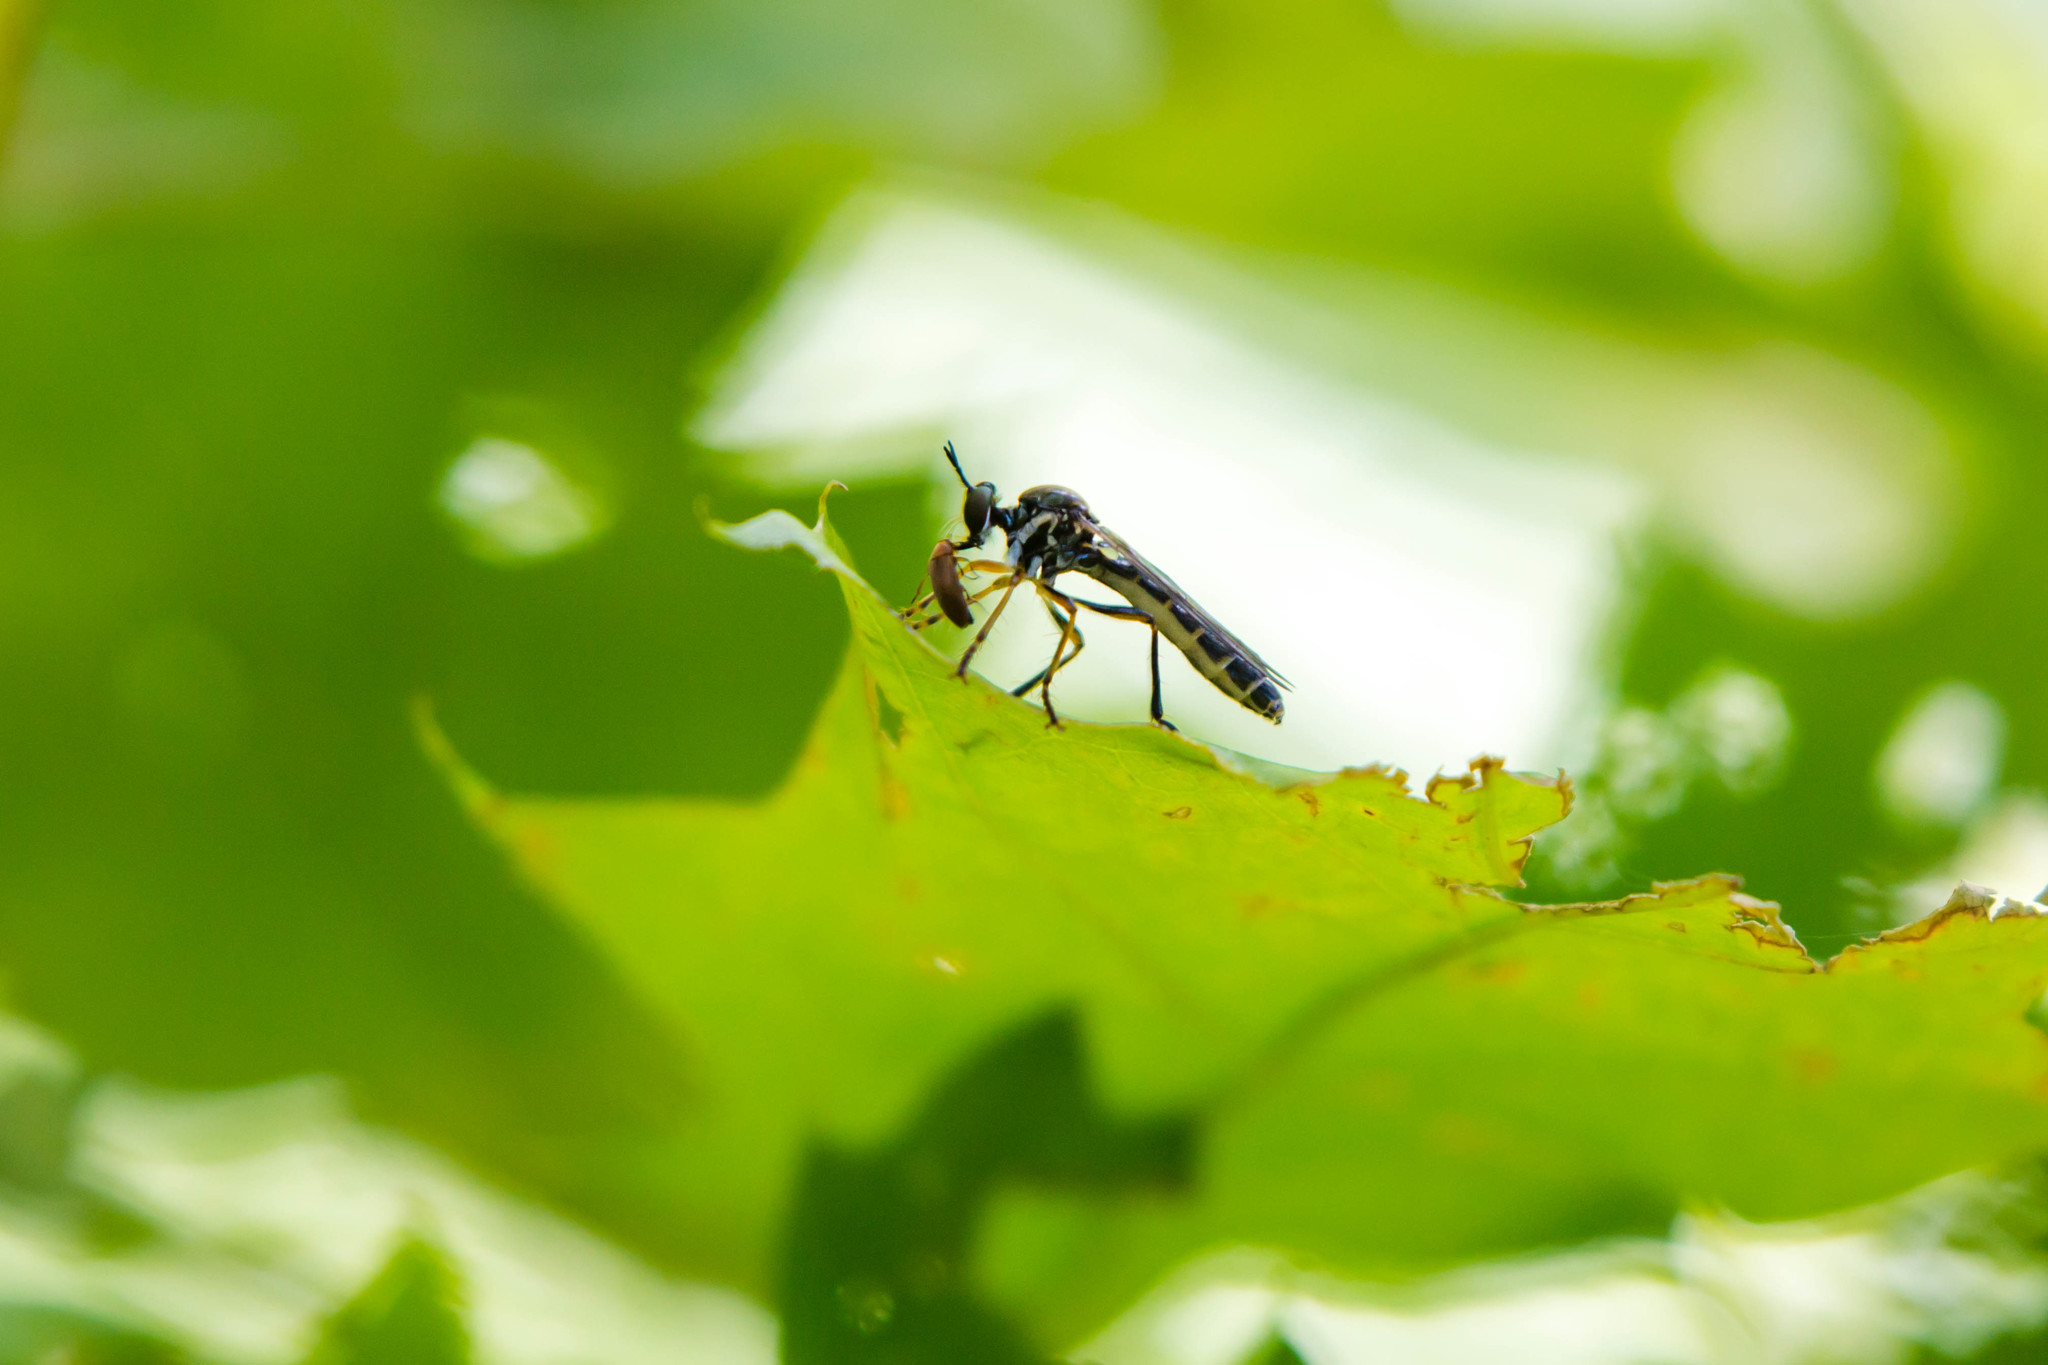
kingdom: Animalia
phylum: Arthropoda
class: Insecta
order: Diptera
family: Asilidae
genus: Dioctria
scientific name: Dioctria hyalipennis
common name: Stripe-legged robberfly
